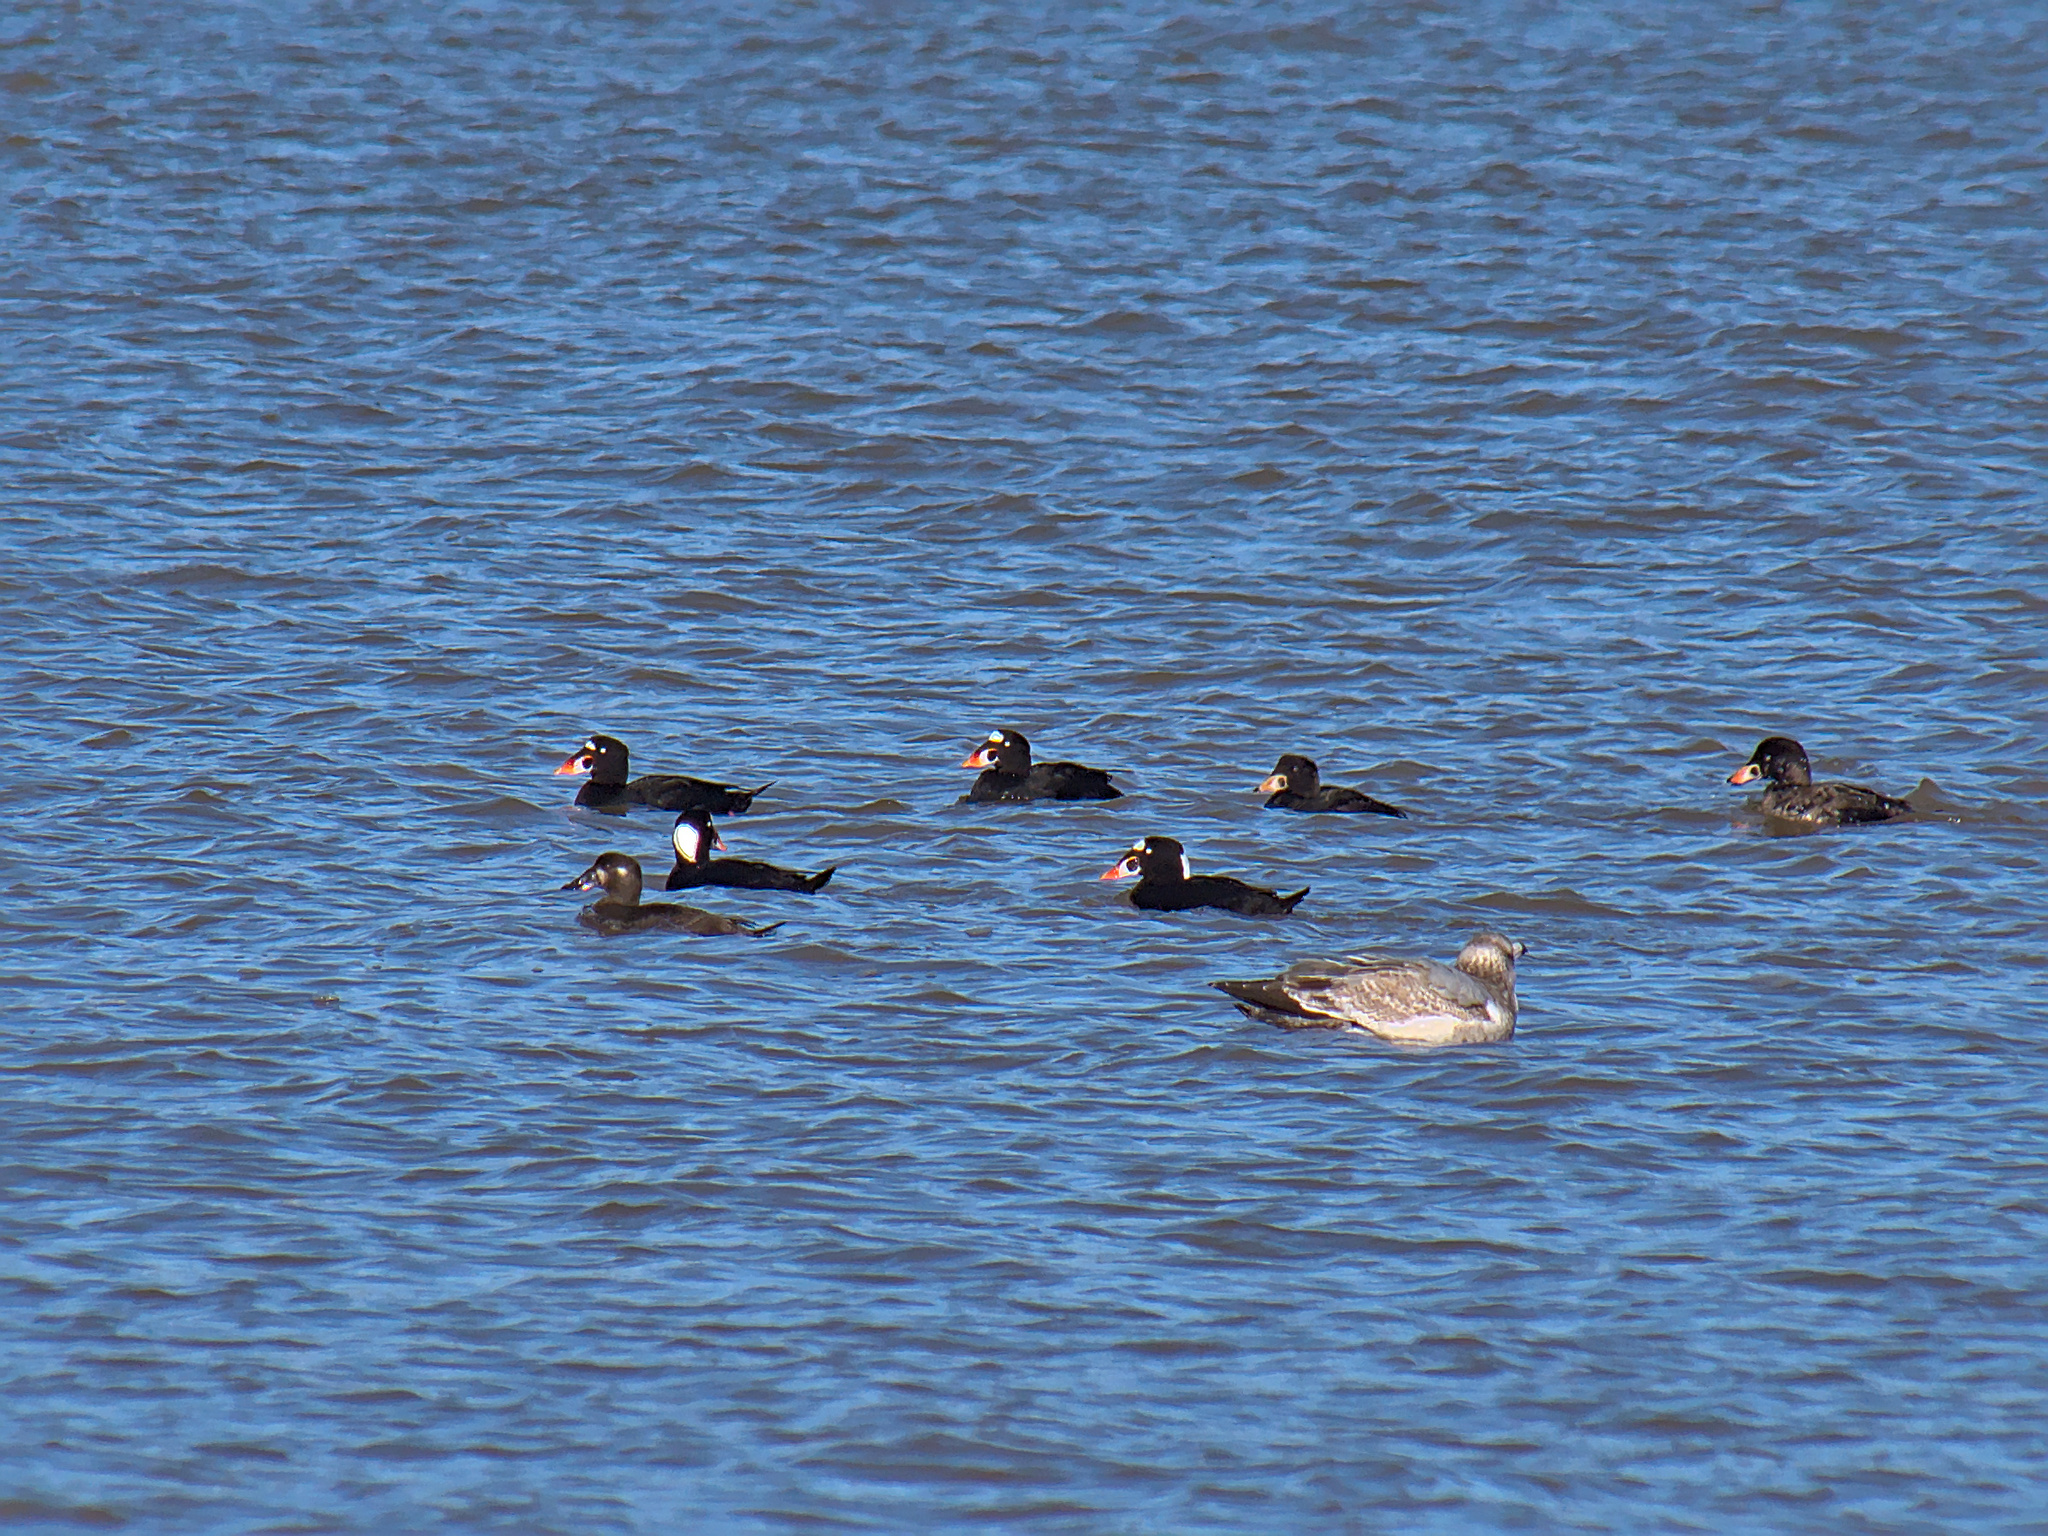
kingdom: Animalia
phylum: Chordata
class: Aves
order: Anseriformes
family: Anatidae
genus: Melanitta
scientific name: Melanitta perspicillata
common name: Surf scoter
